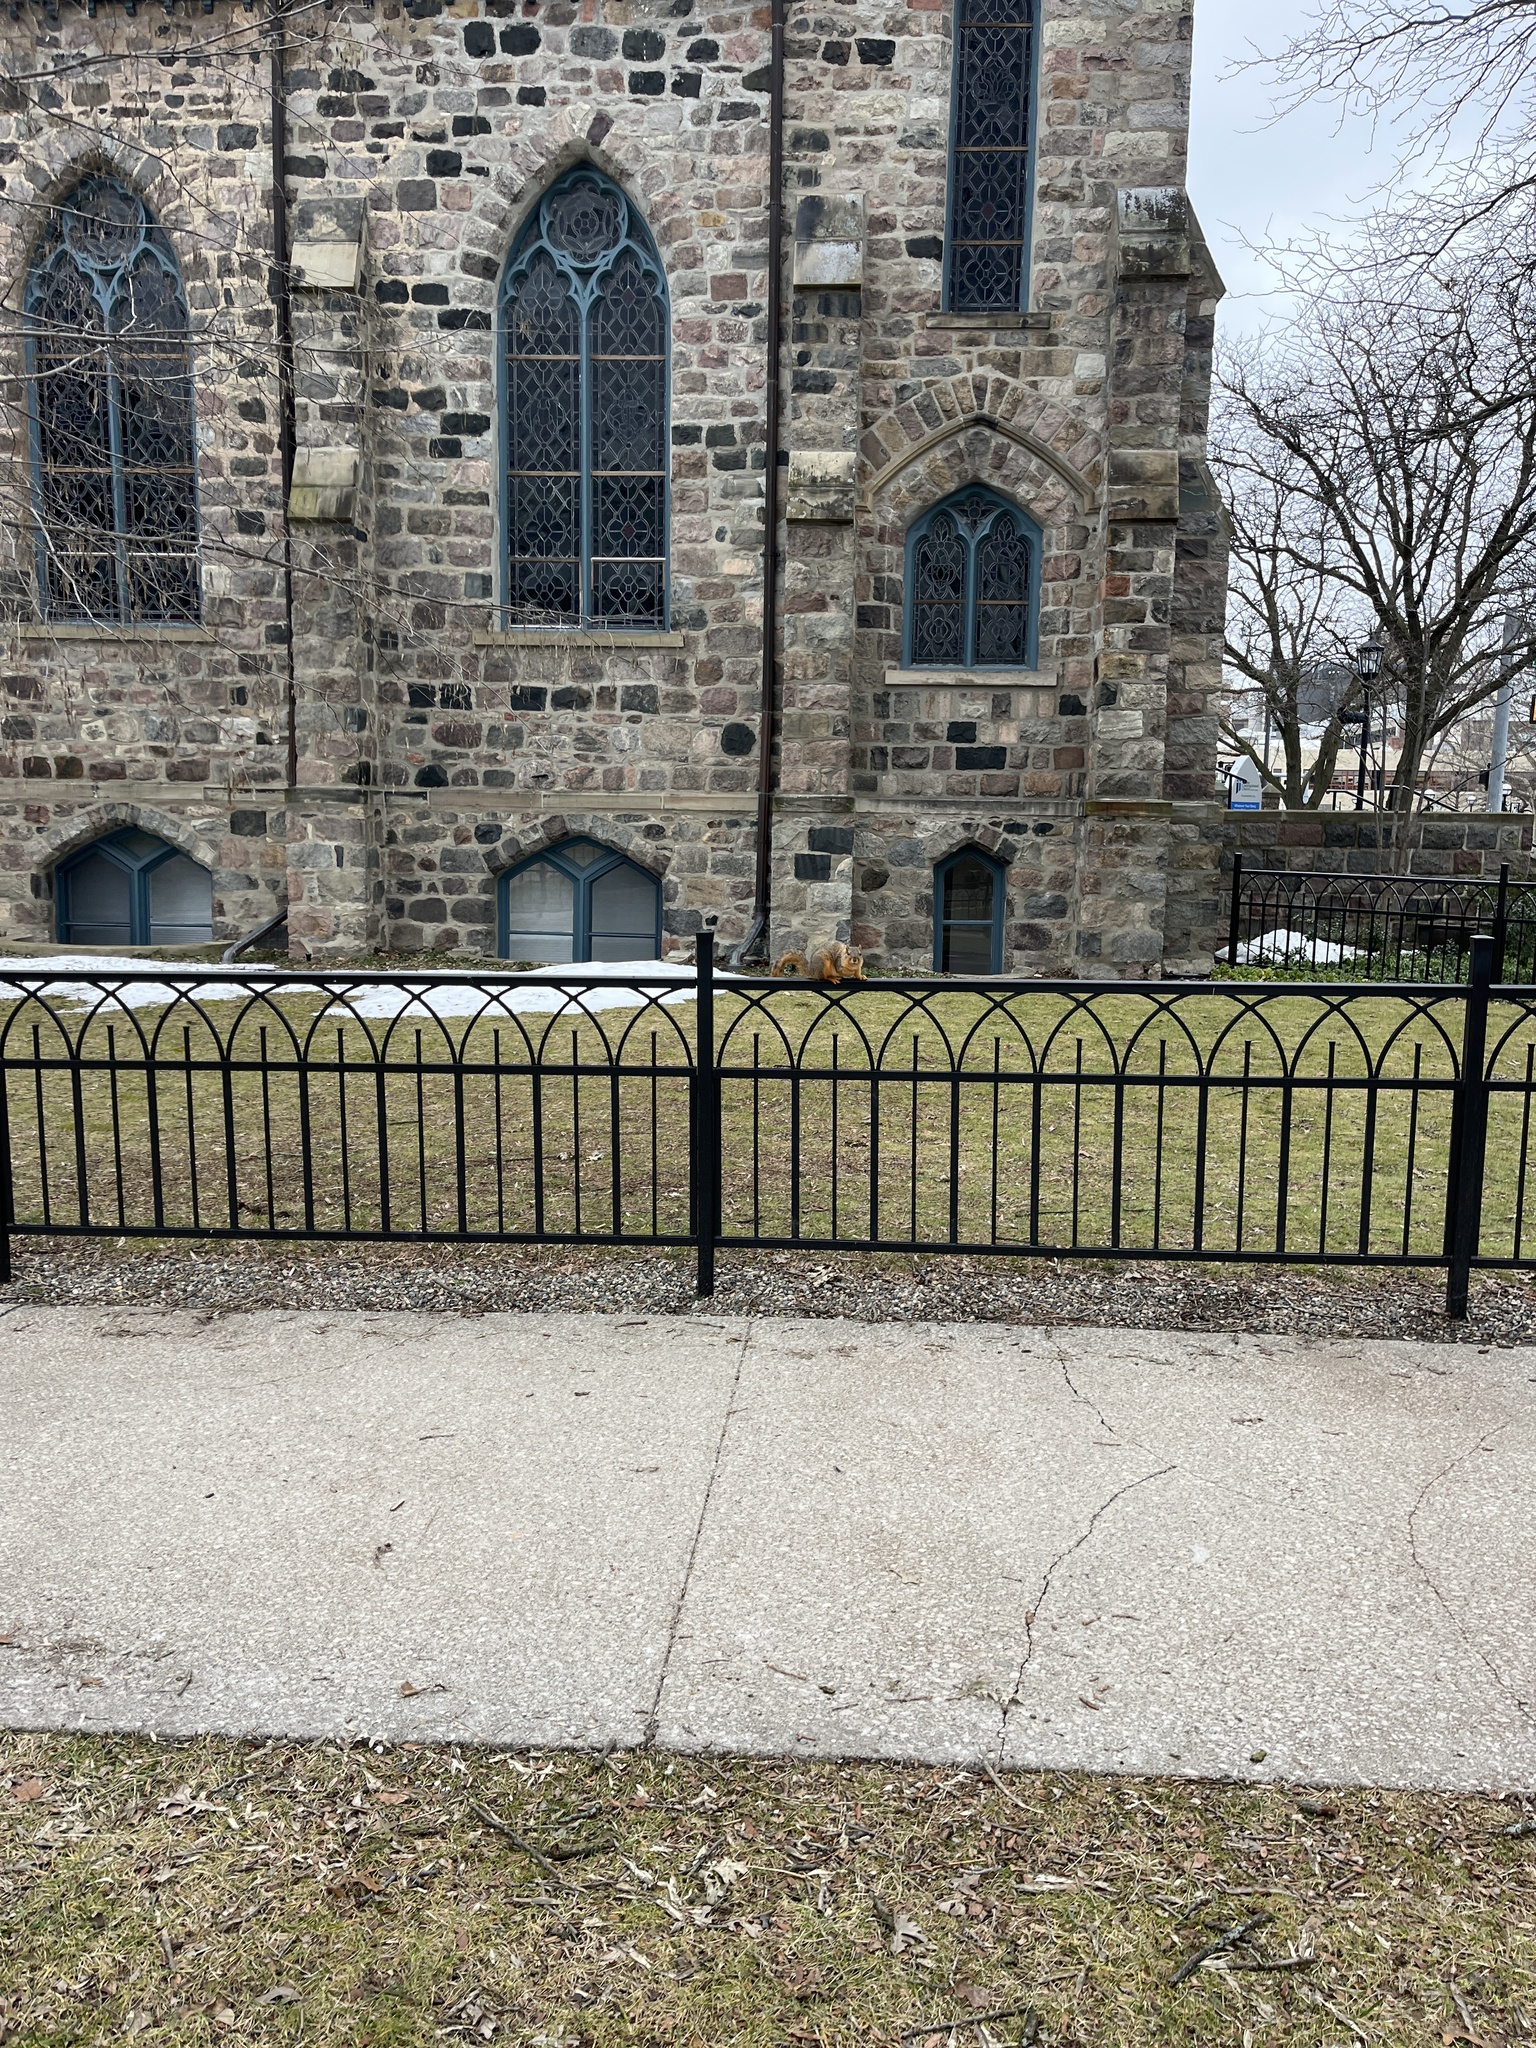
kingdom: Animalia
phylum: Chordata
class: Mammalia
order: Rodentia
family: Sciuridae
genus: Sciurus
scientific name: Sciurus niger
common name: Fox squirrel
